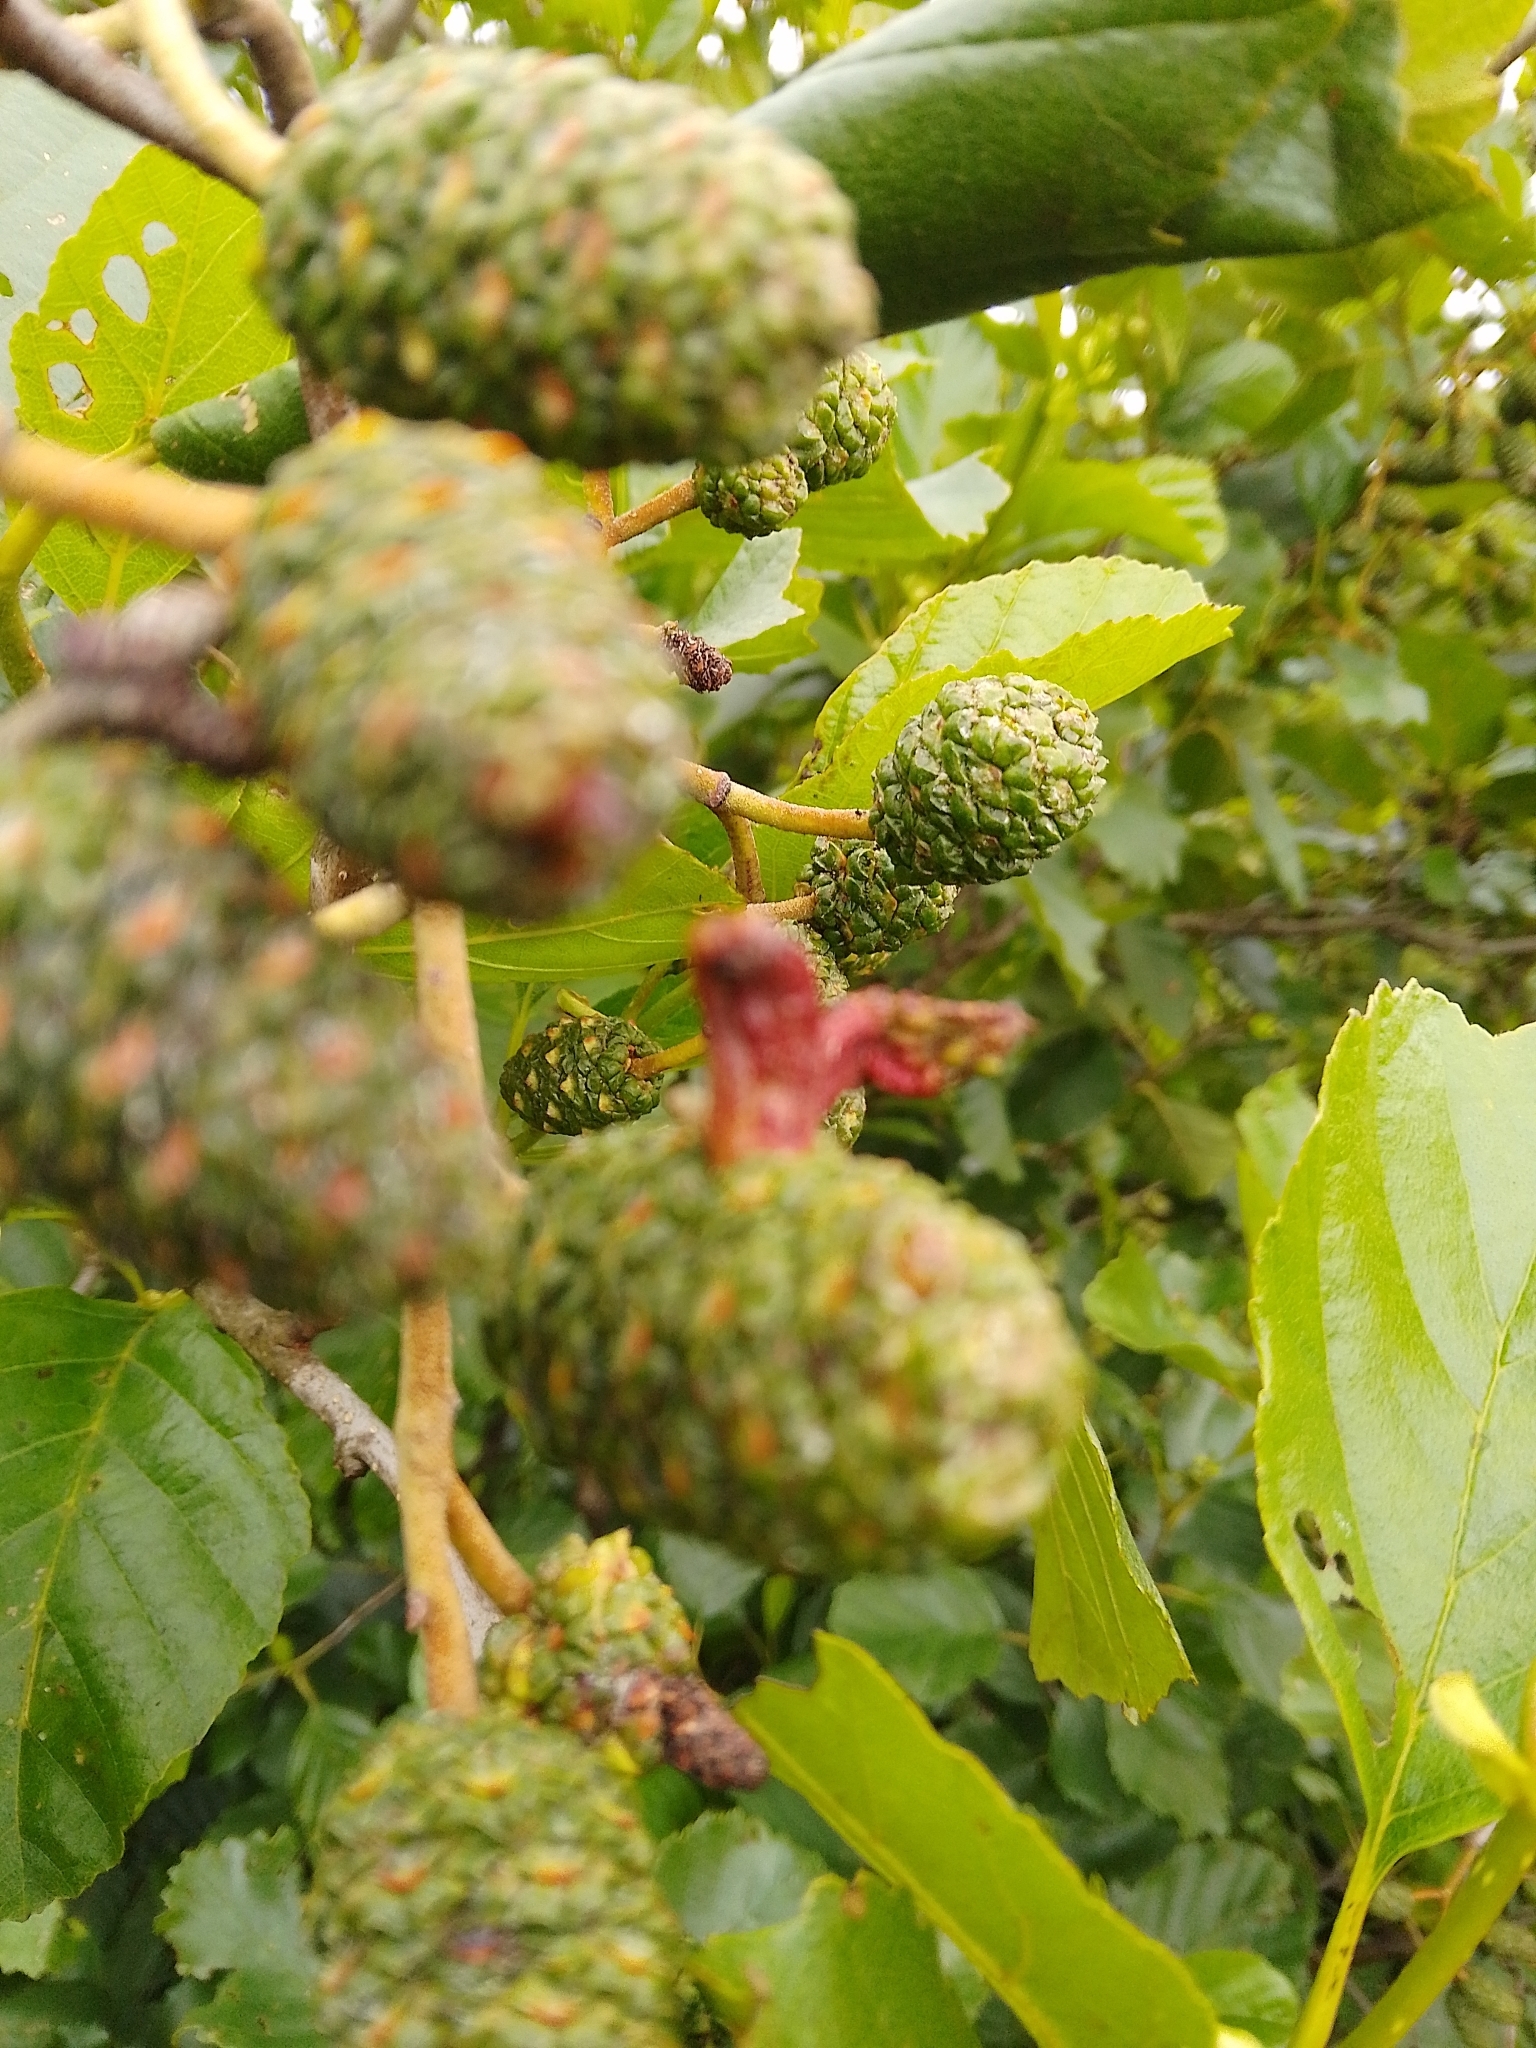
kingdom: Fungi
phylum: Ascomycota
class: Taphrinomycetes
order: Taphrinales
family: Taphrinaceae
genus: Taphrina
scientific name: Taphrina alni
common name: Alder tongue
